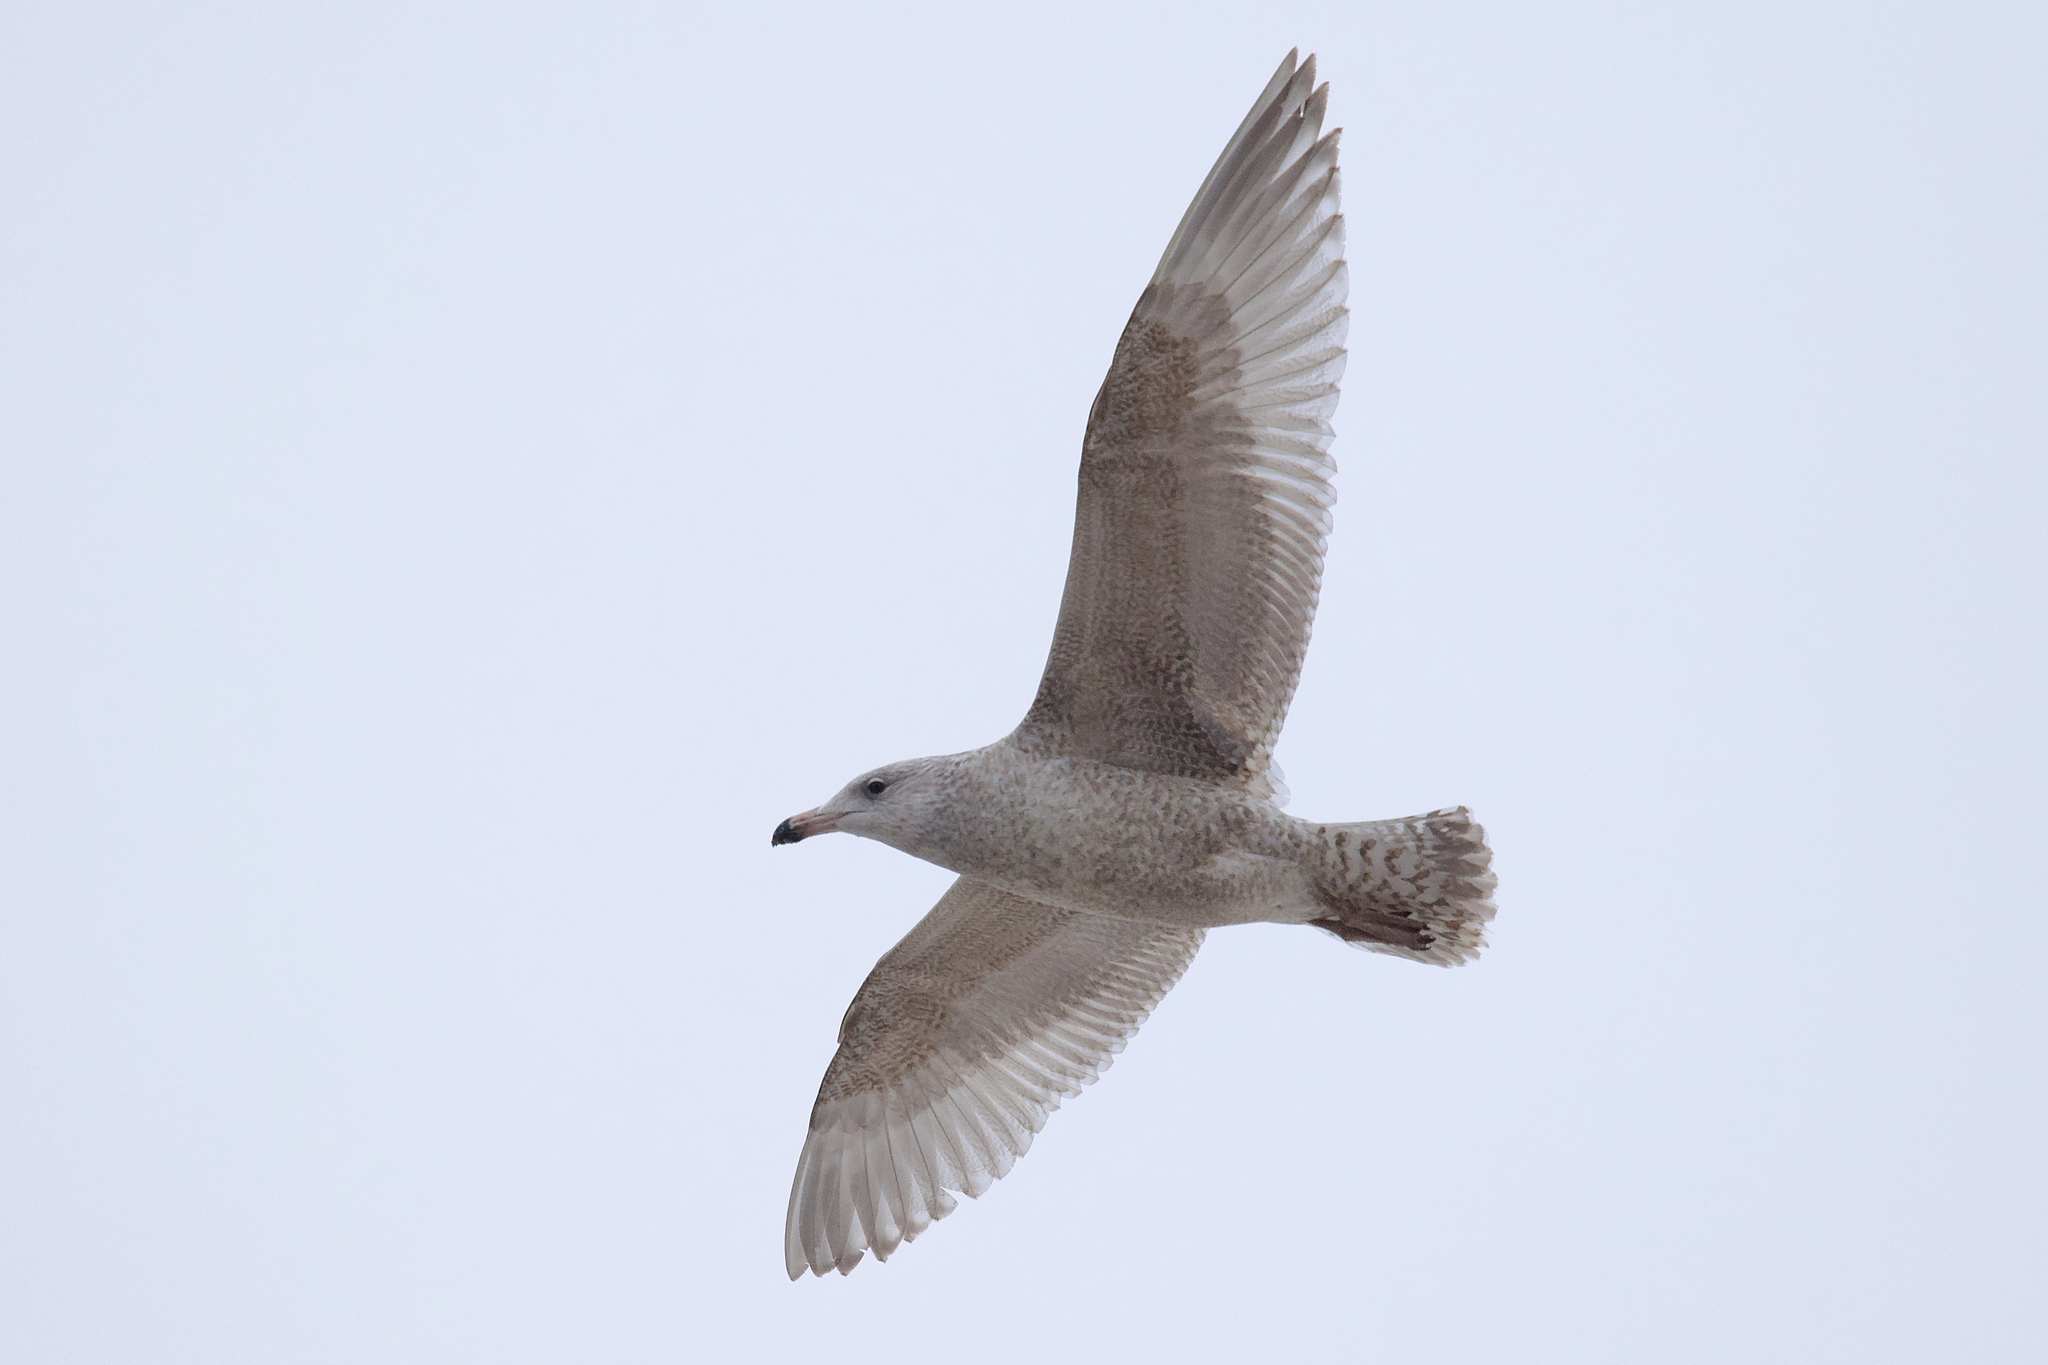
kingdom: Animalia
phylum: Chordata
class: Aves
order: Charadriiformes
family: Laridae
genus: Larus
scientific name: Larus
